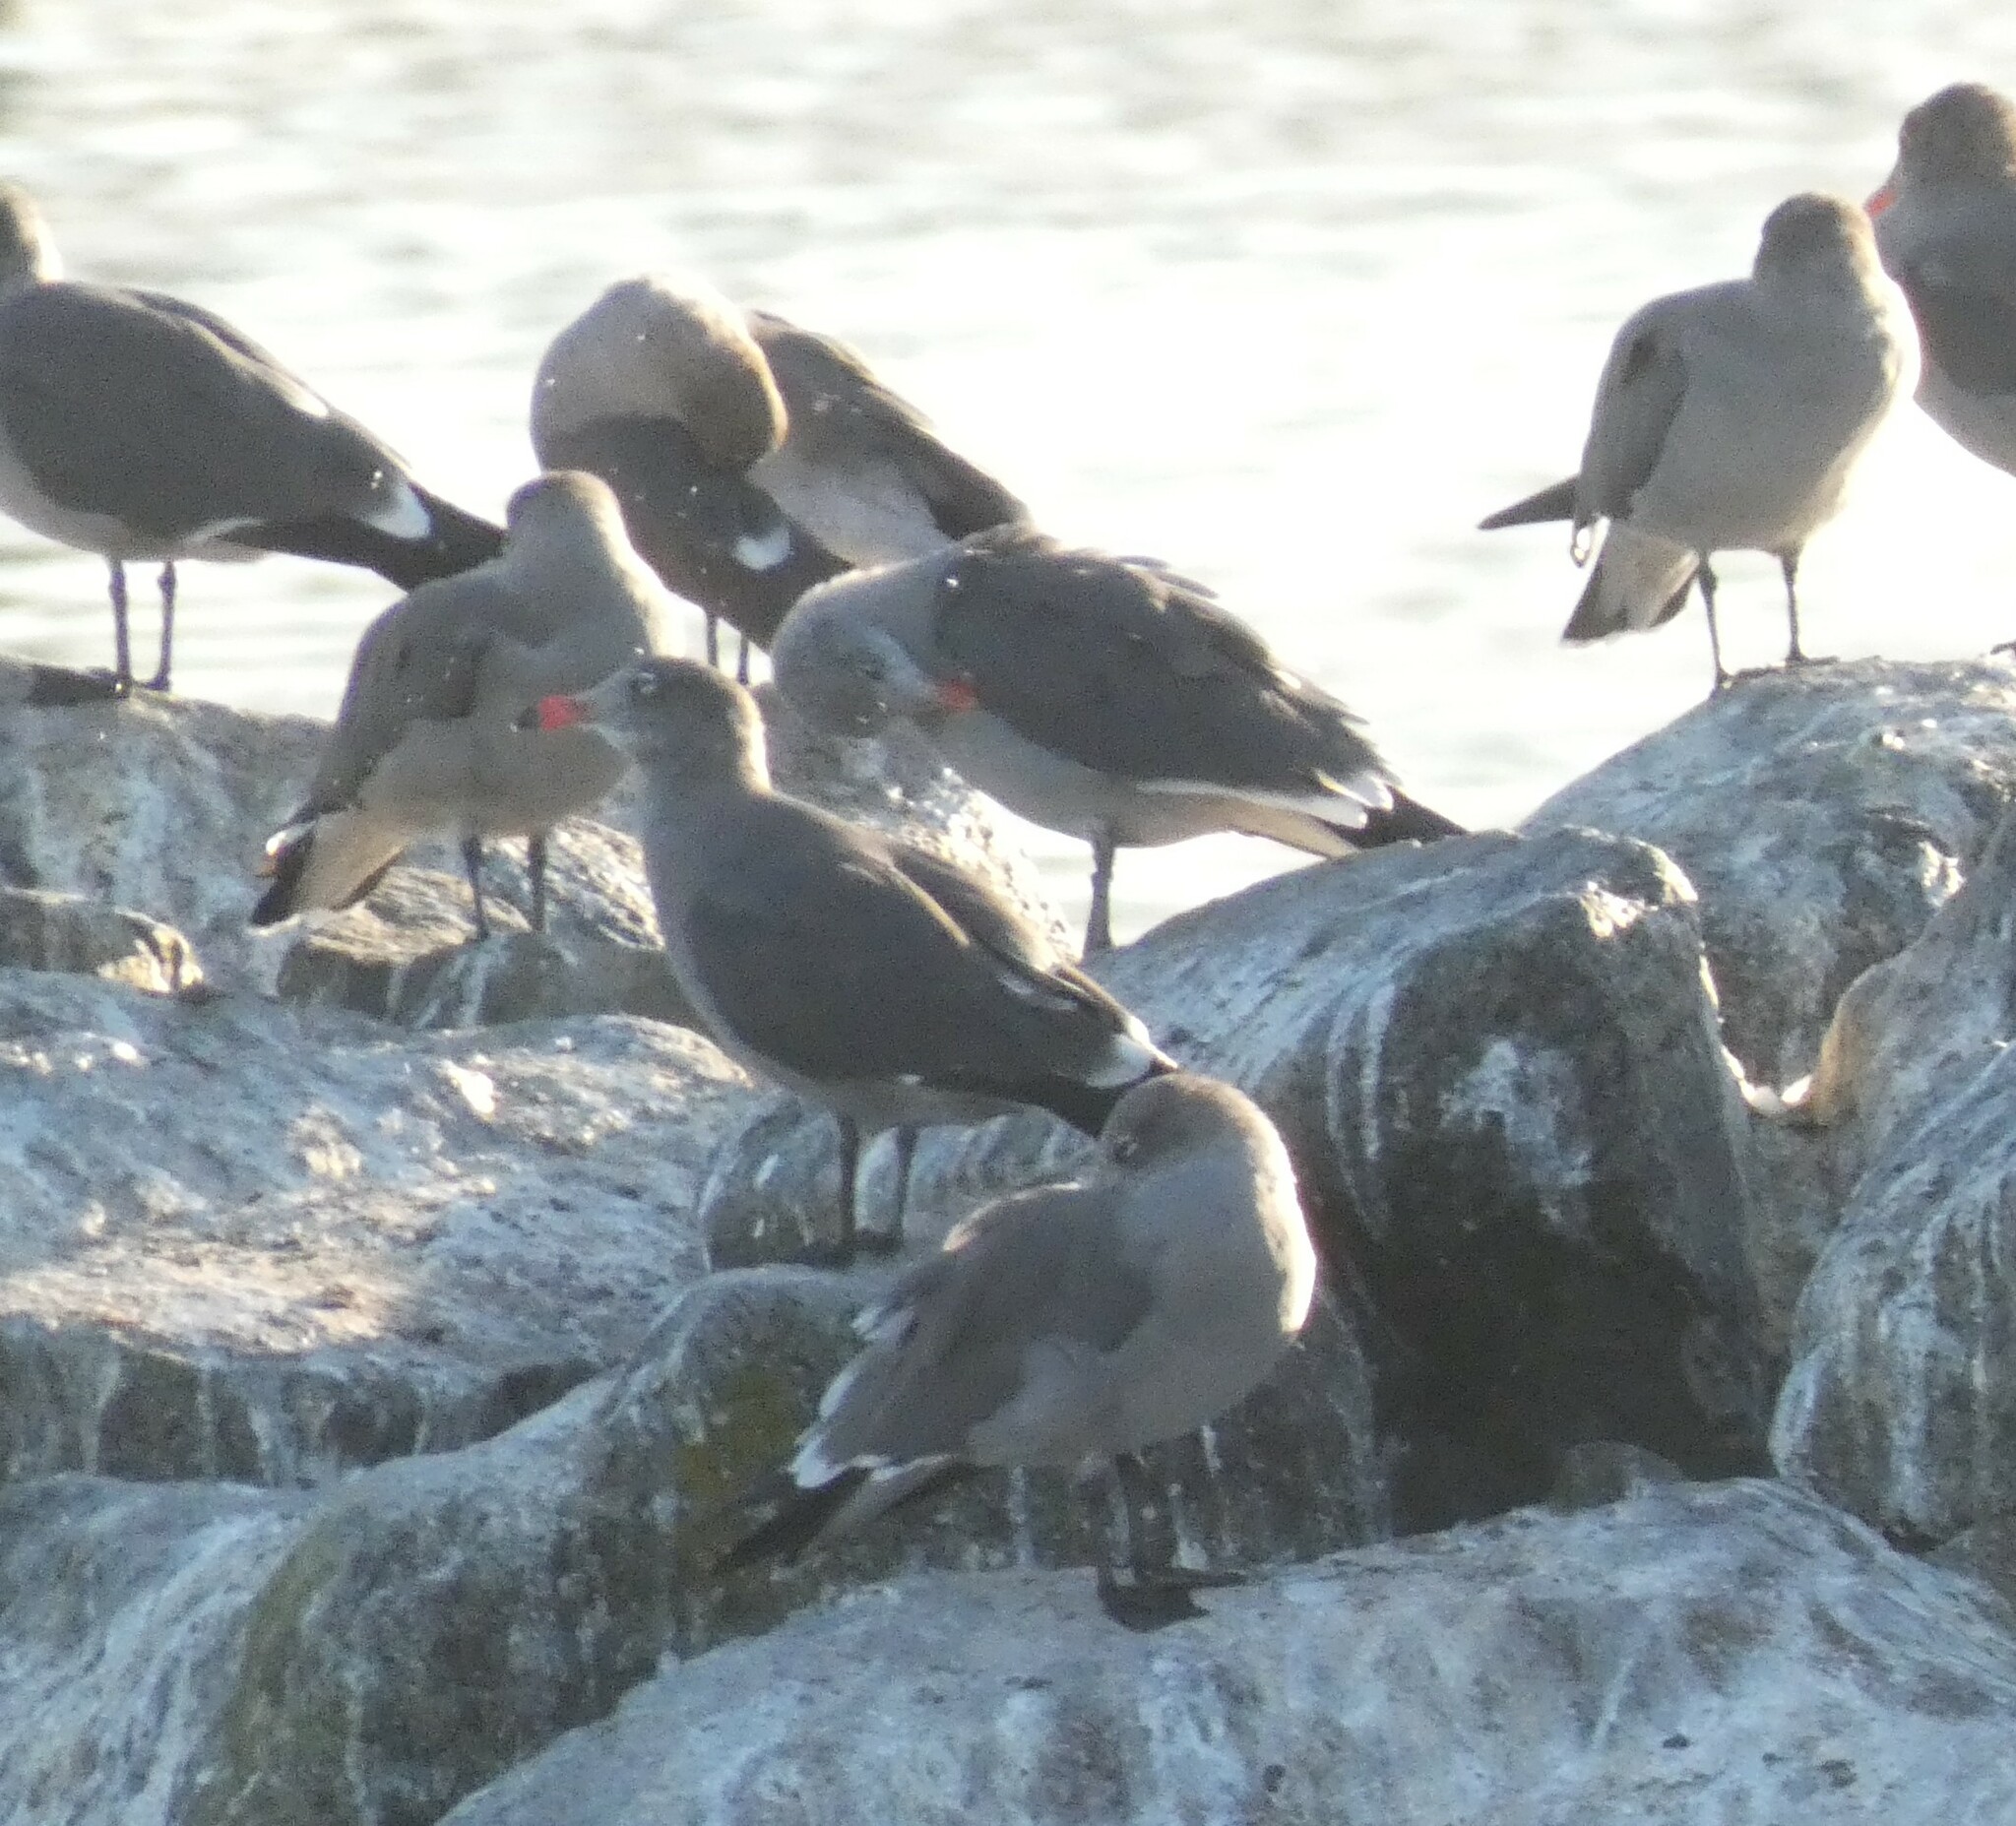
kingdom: Animalia
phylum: Chordata
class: Aves
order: Charadriiformes
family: Laridae
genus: Larus
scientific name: Larus heermanni
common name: Heermann's gull
